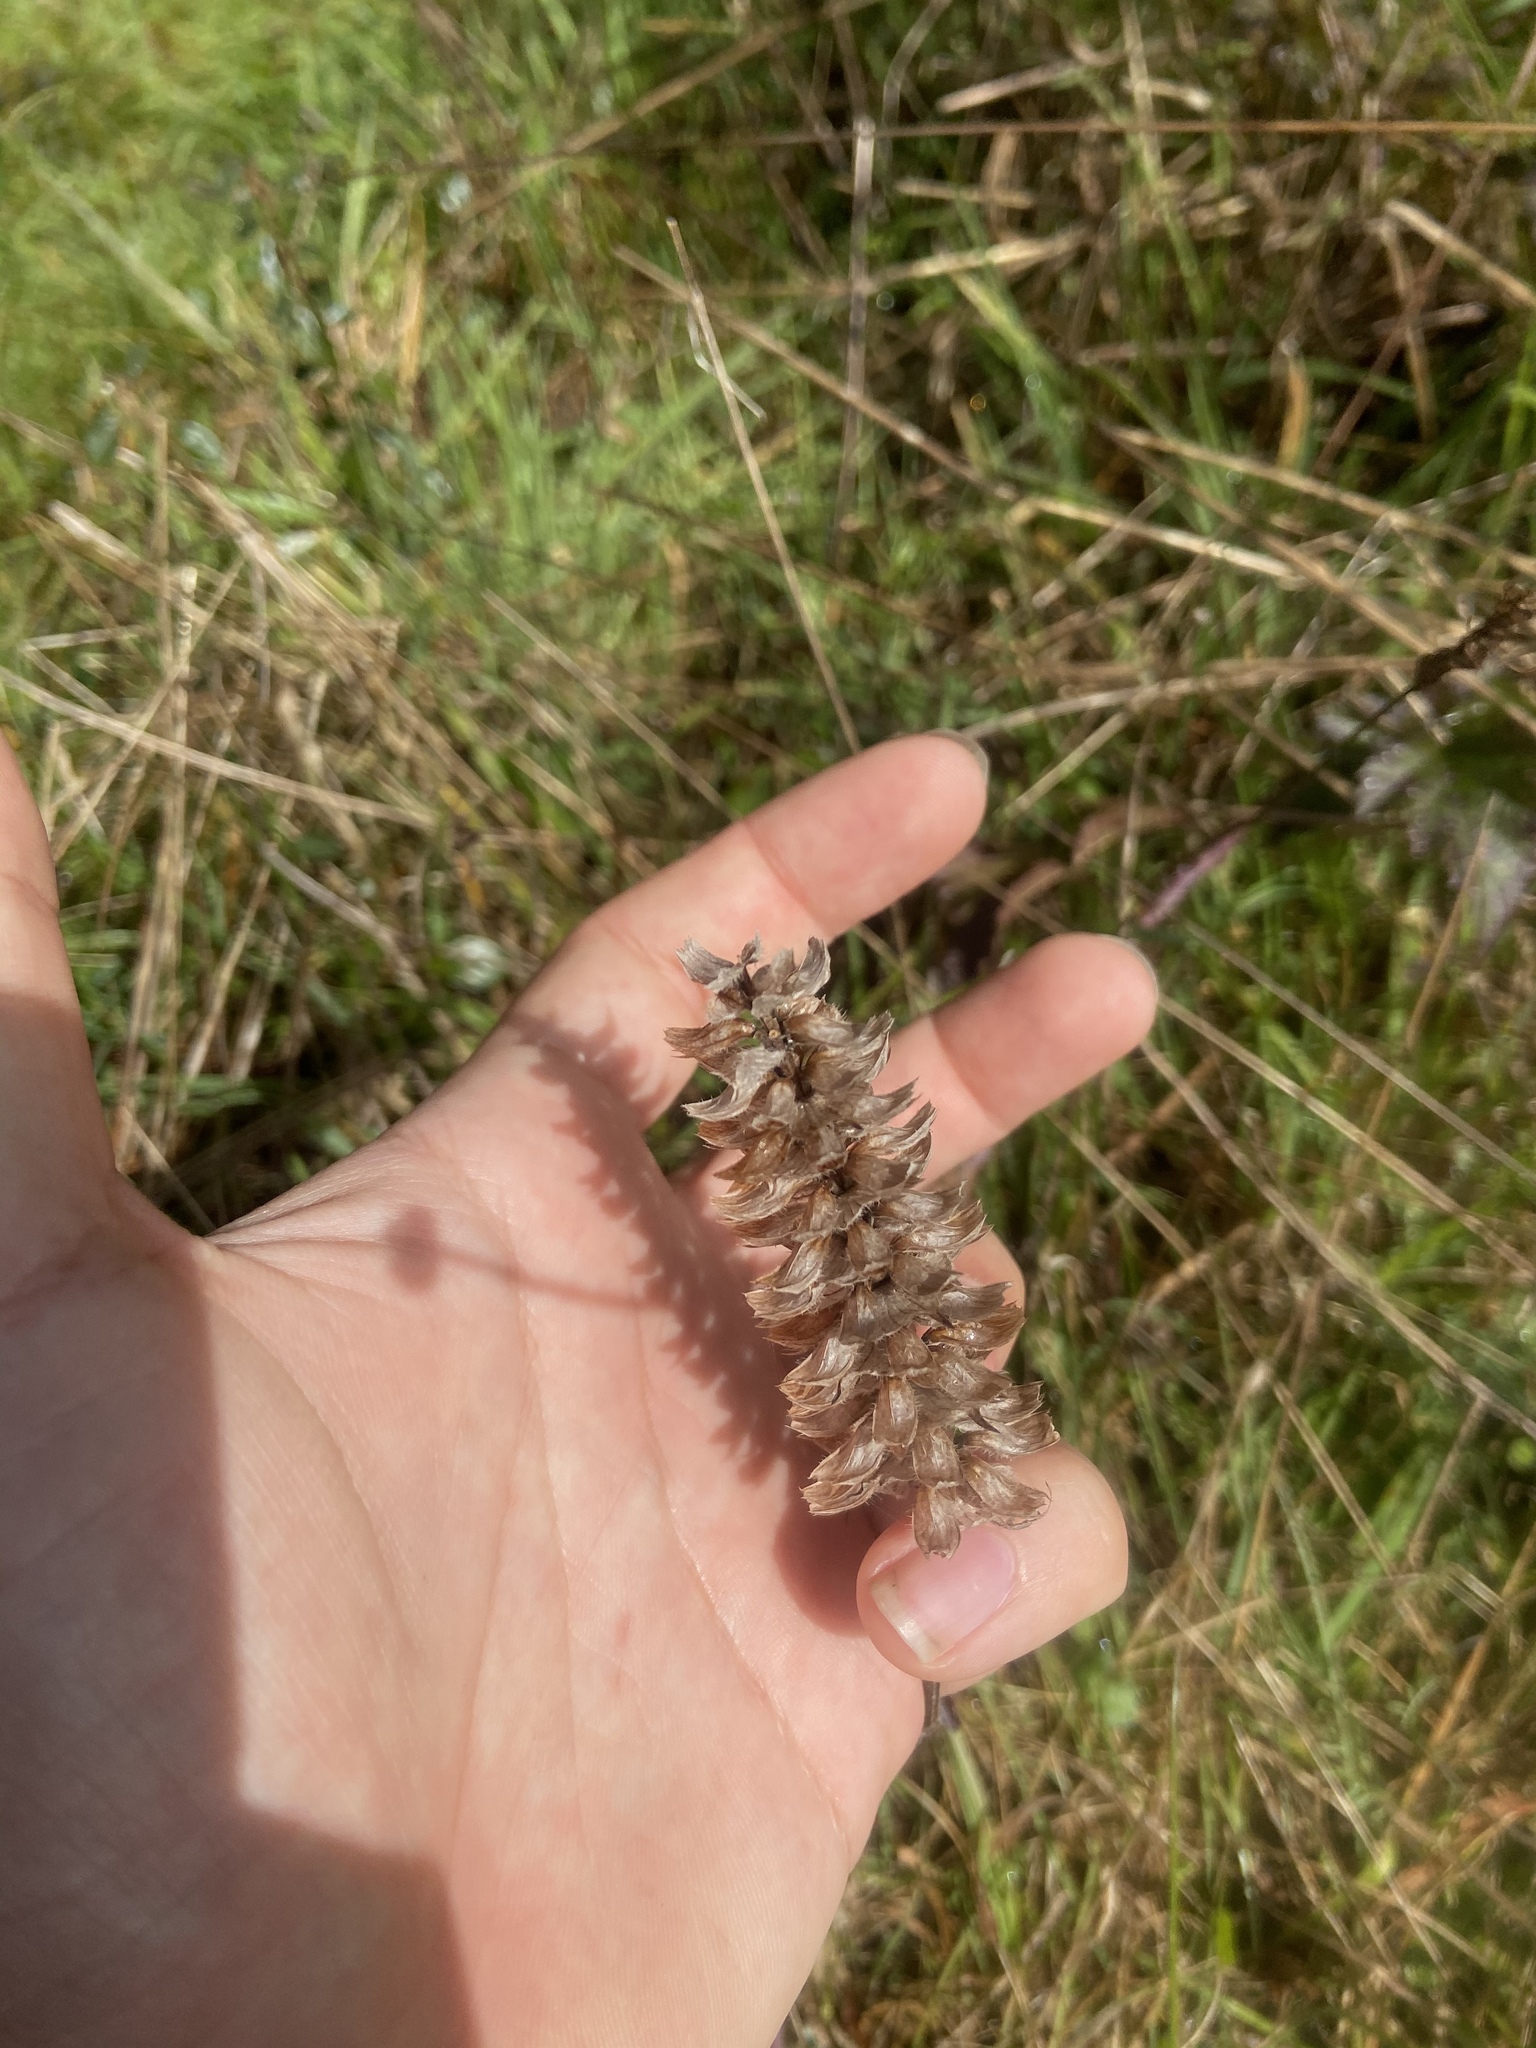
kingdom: Plantae
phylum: Tracheophyta
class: Magnoliopsida
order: Lamiales
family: Lamiaceae
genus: Prunella
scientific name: Prunella vulgaris
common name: Heal-all
